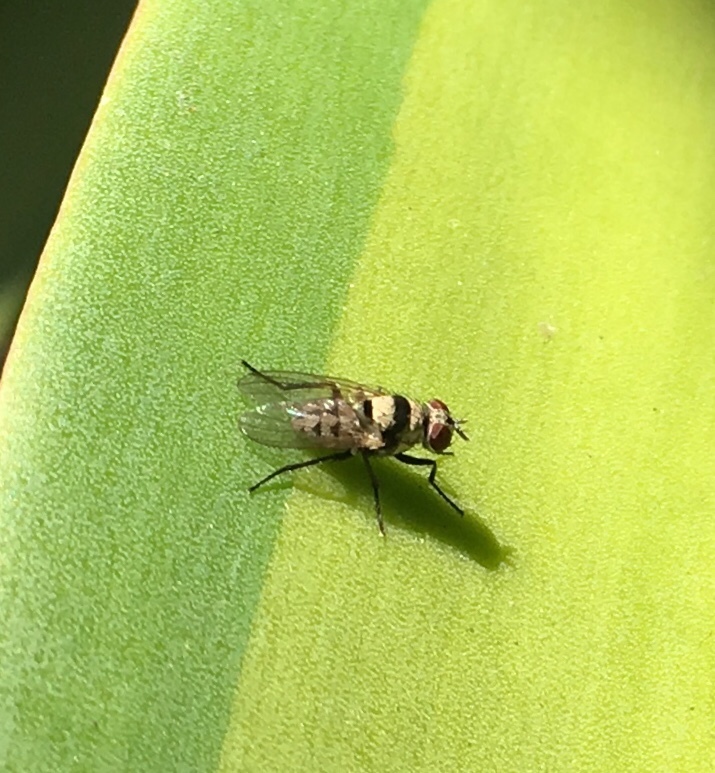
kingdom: Animalia
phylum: Arthropoda
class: Insecta
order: Diptera
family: Anthomyiidae
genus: Anthomyia
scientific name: Anthomyia illocata
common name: Fly
